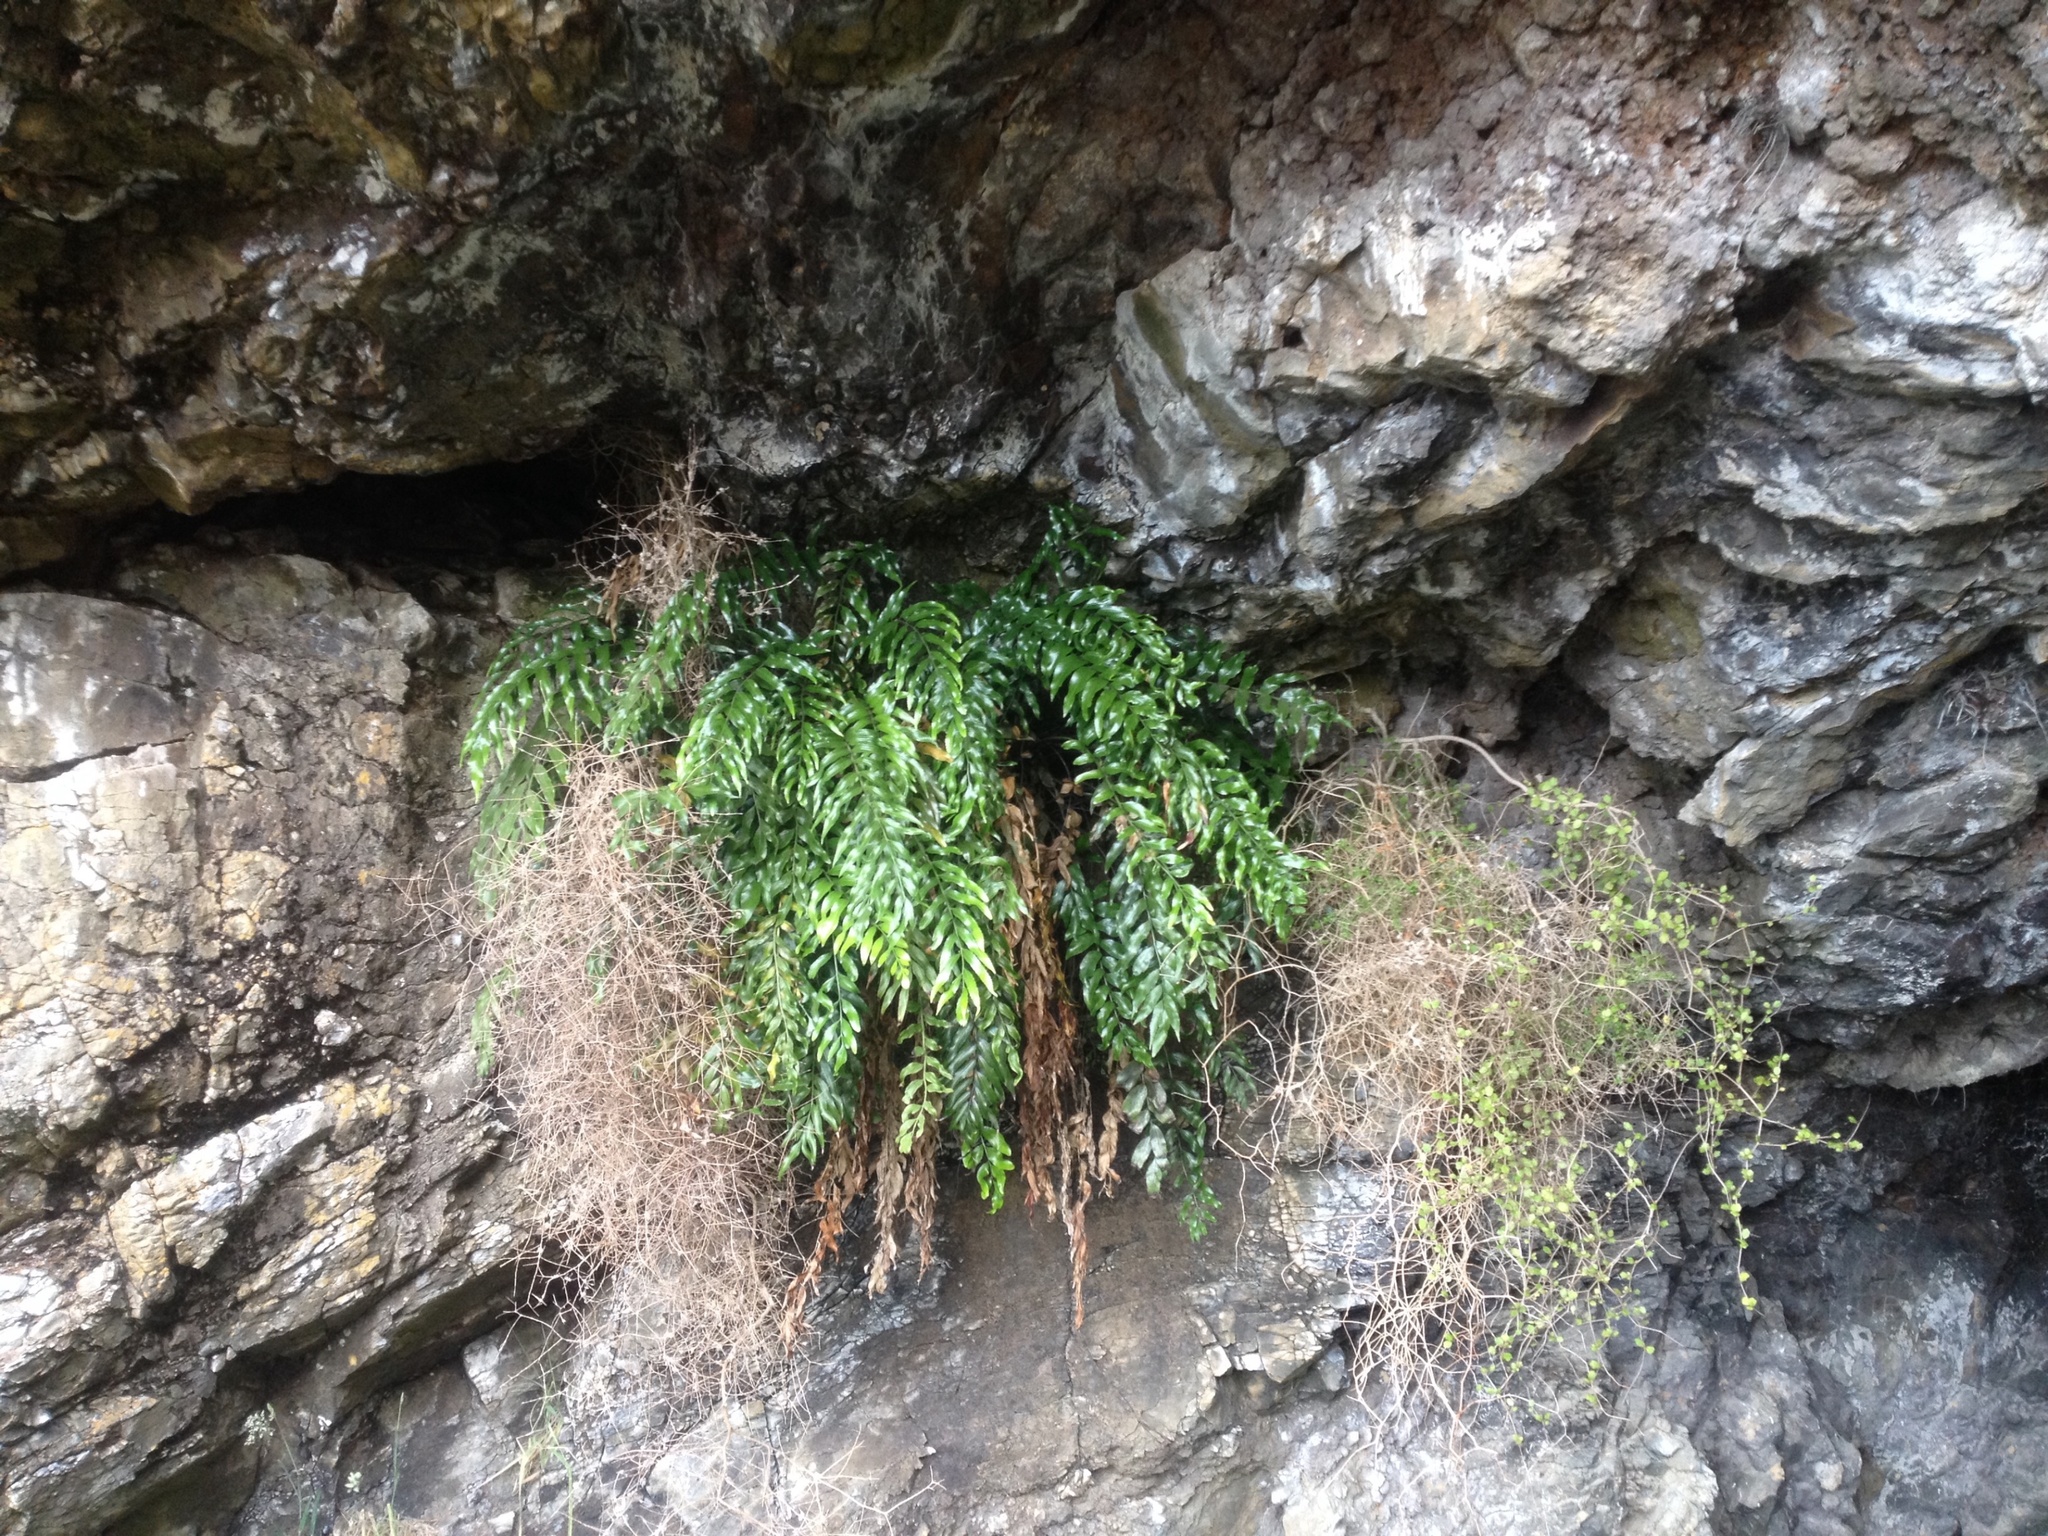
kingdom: Plantae
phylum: Tracheophyta
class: Polypodiopsida
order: Polypodiales
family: Aspleniaceae
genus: Asplenium
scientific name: Asplenium oblongifolium
